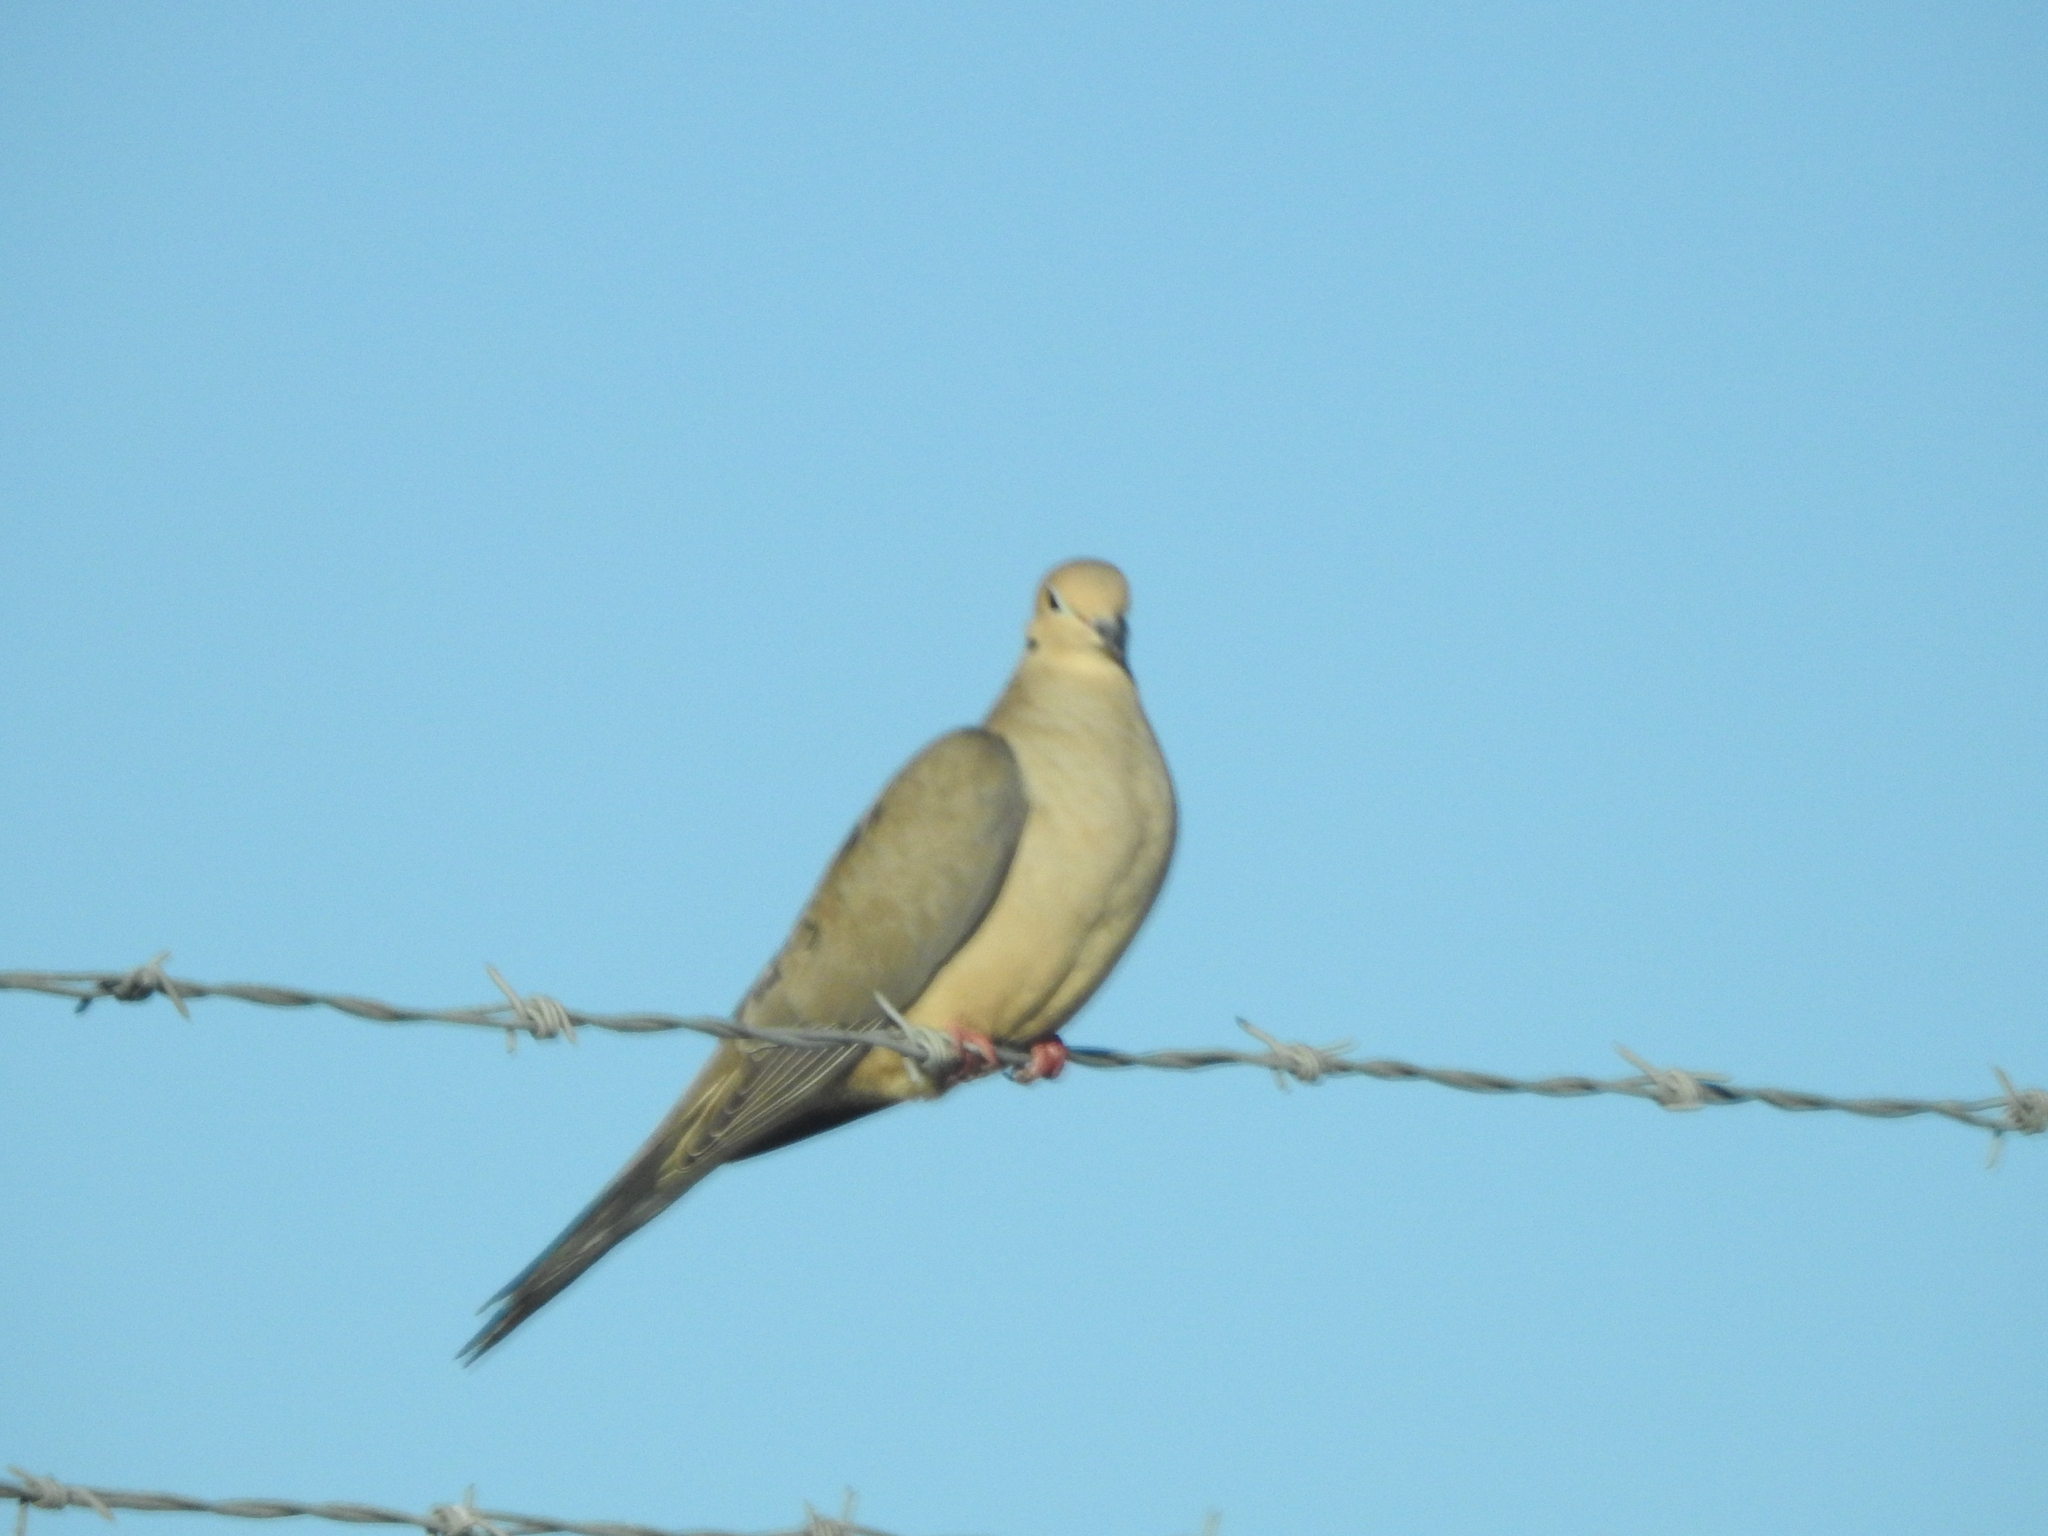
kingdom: Animalia
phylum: Chordata
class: Aves
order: Columbiformes
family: Columbidae
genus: Zenaida
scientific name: Zenaida macroura
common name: Mourning dove
